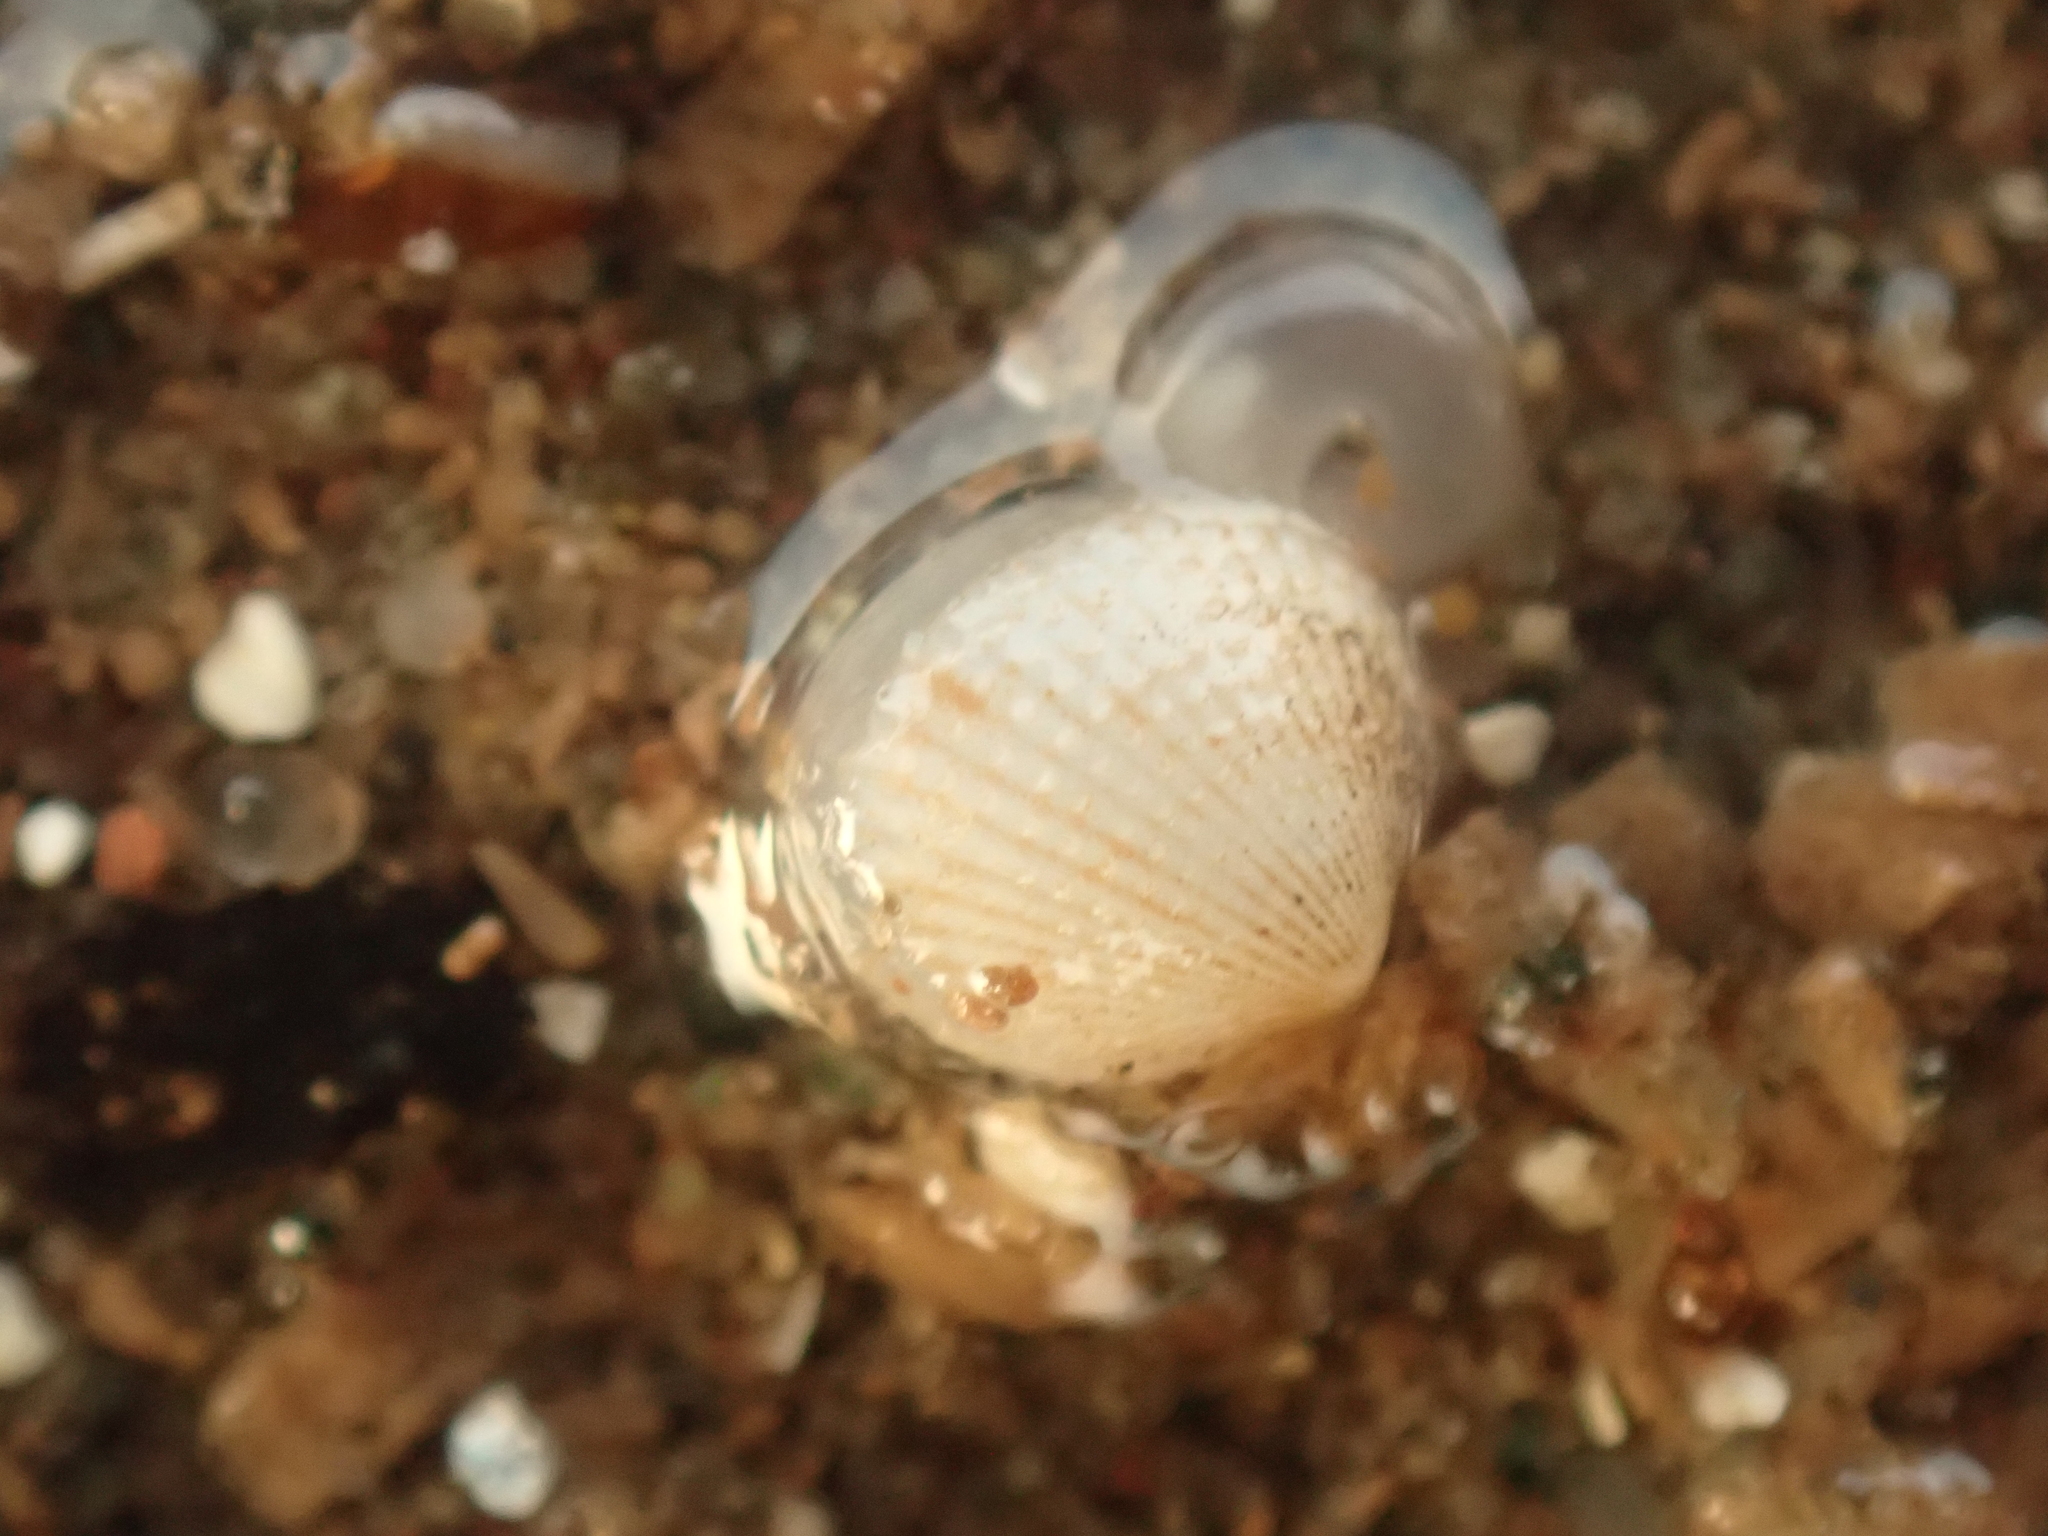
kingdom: Animalia
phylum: Mollusca
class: Bivalvia
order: Cardiida
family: Cardiidae
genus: Parvicardium
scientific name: Parvicardium pinnulatum
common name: Oval cockle
